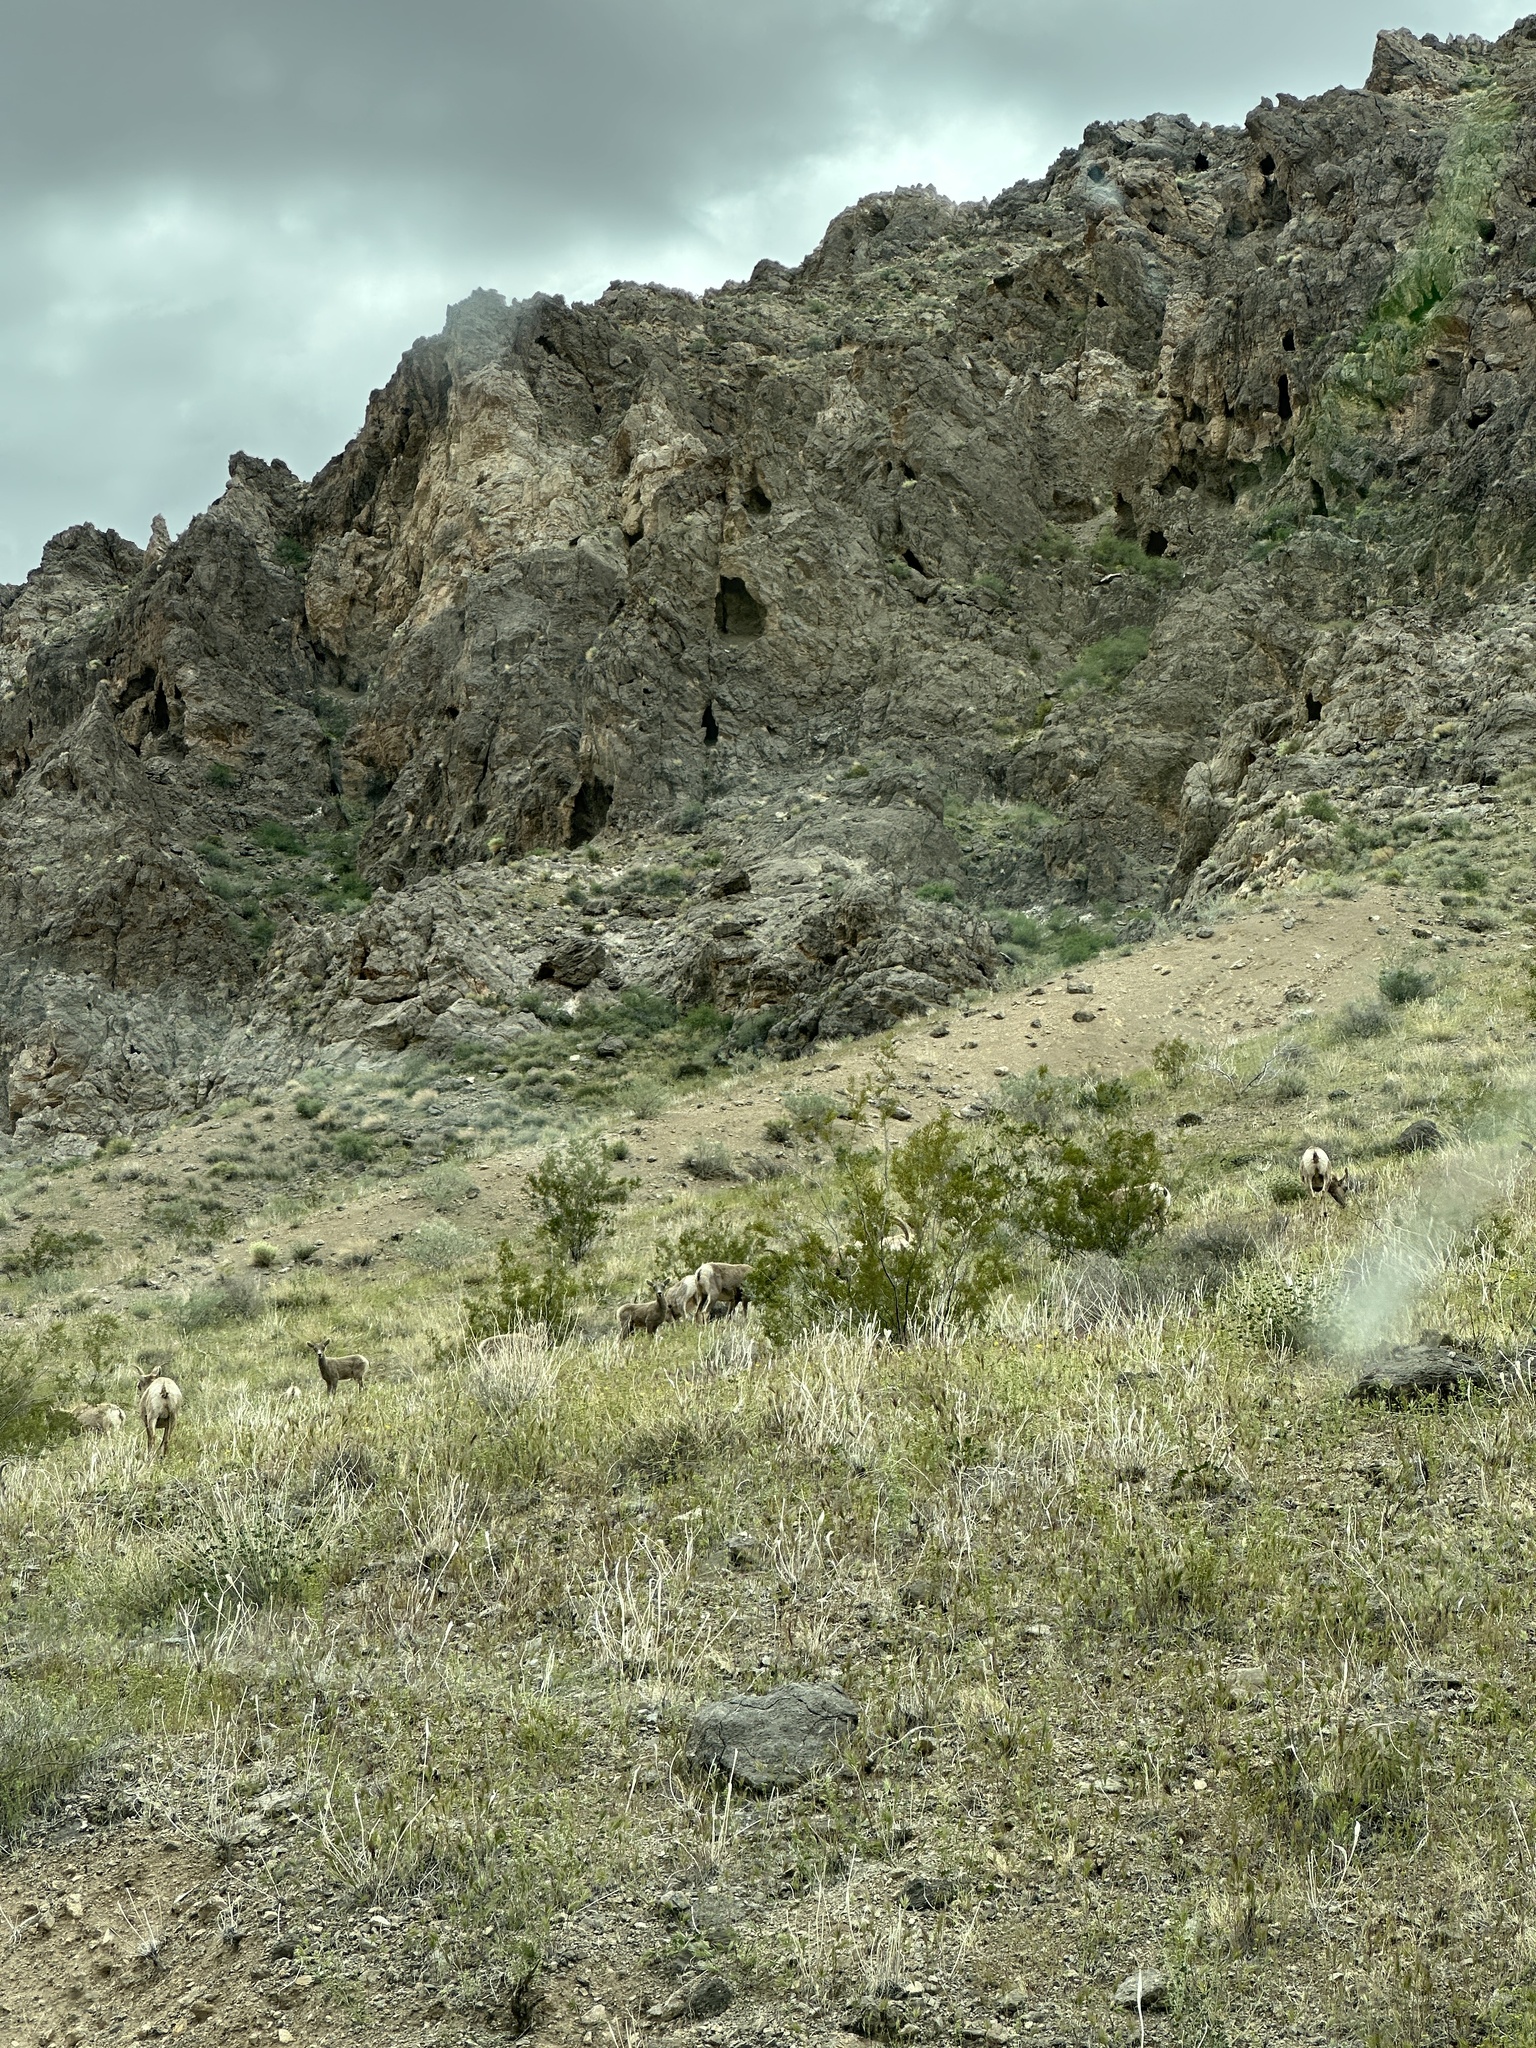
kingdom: Animalia
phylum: Chordata
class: Mammalia
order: Artiodactyla
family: Bovidae
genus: Ovis
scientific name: Ovis canadensis
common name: Bighorn sheep
